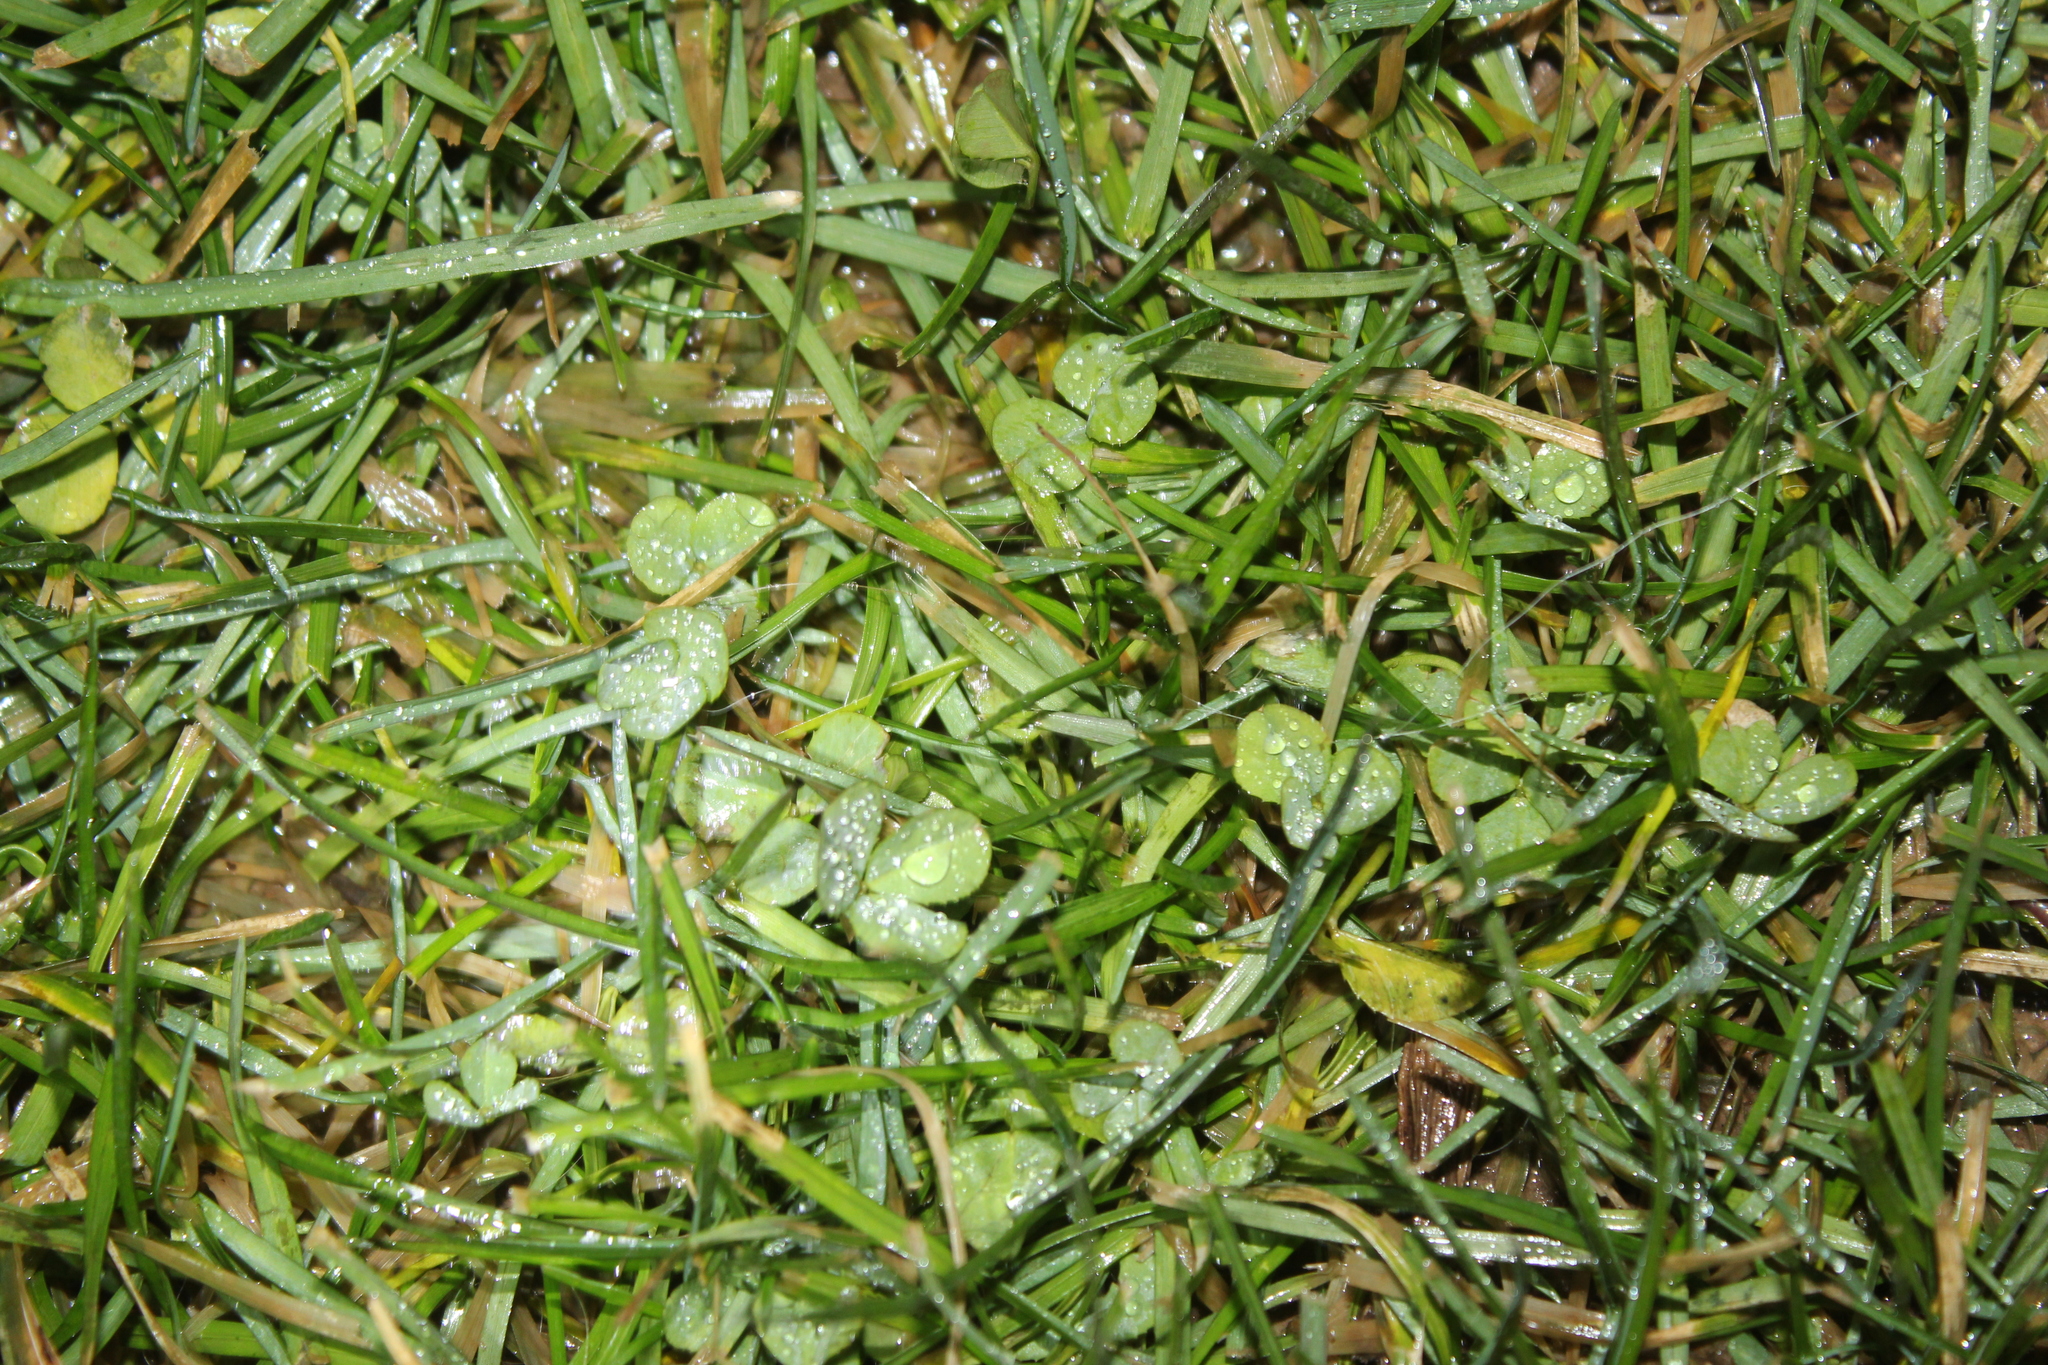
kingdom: Plantae
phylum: Tracheophyta
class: Magnoliopsida
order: Fabales
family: Fabaceae
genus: Trifolium
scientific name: Trifolium repens
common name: White clover
